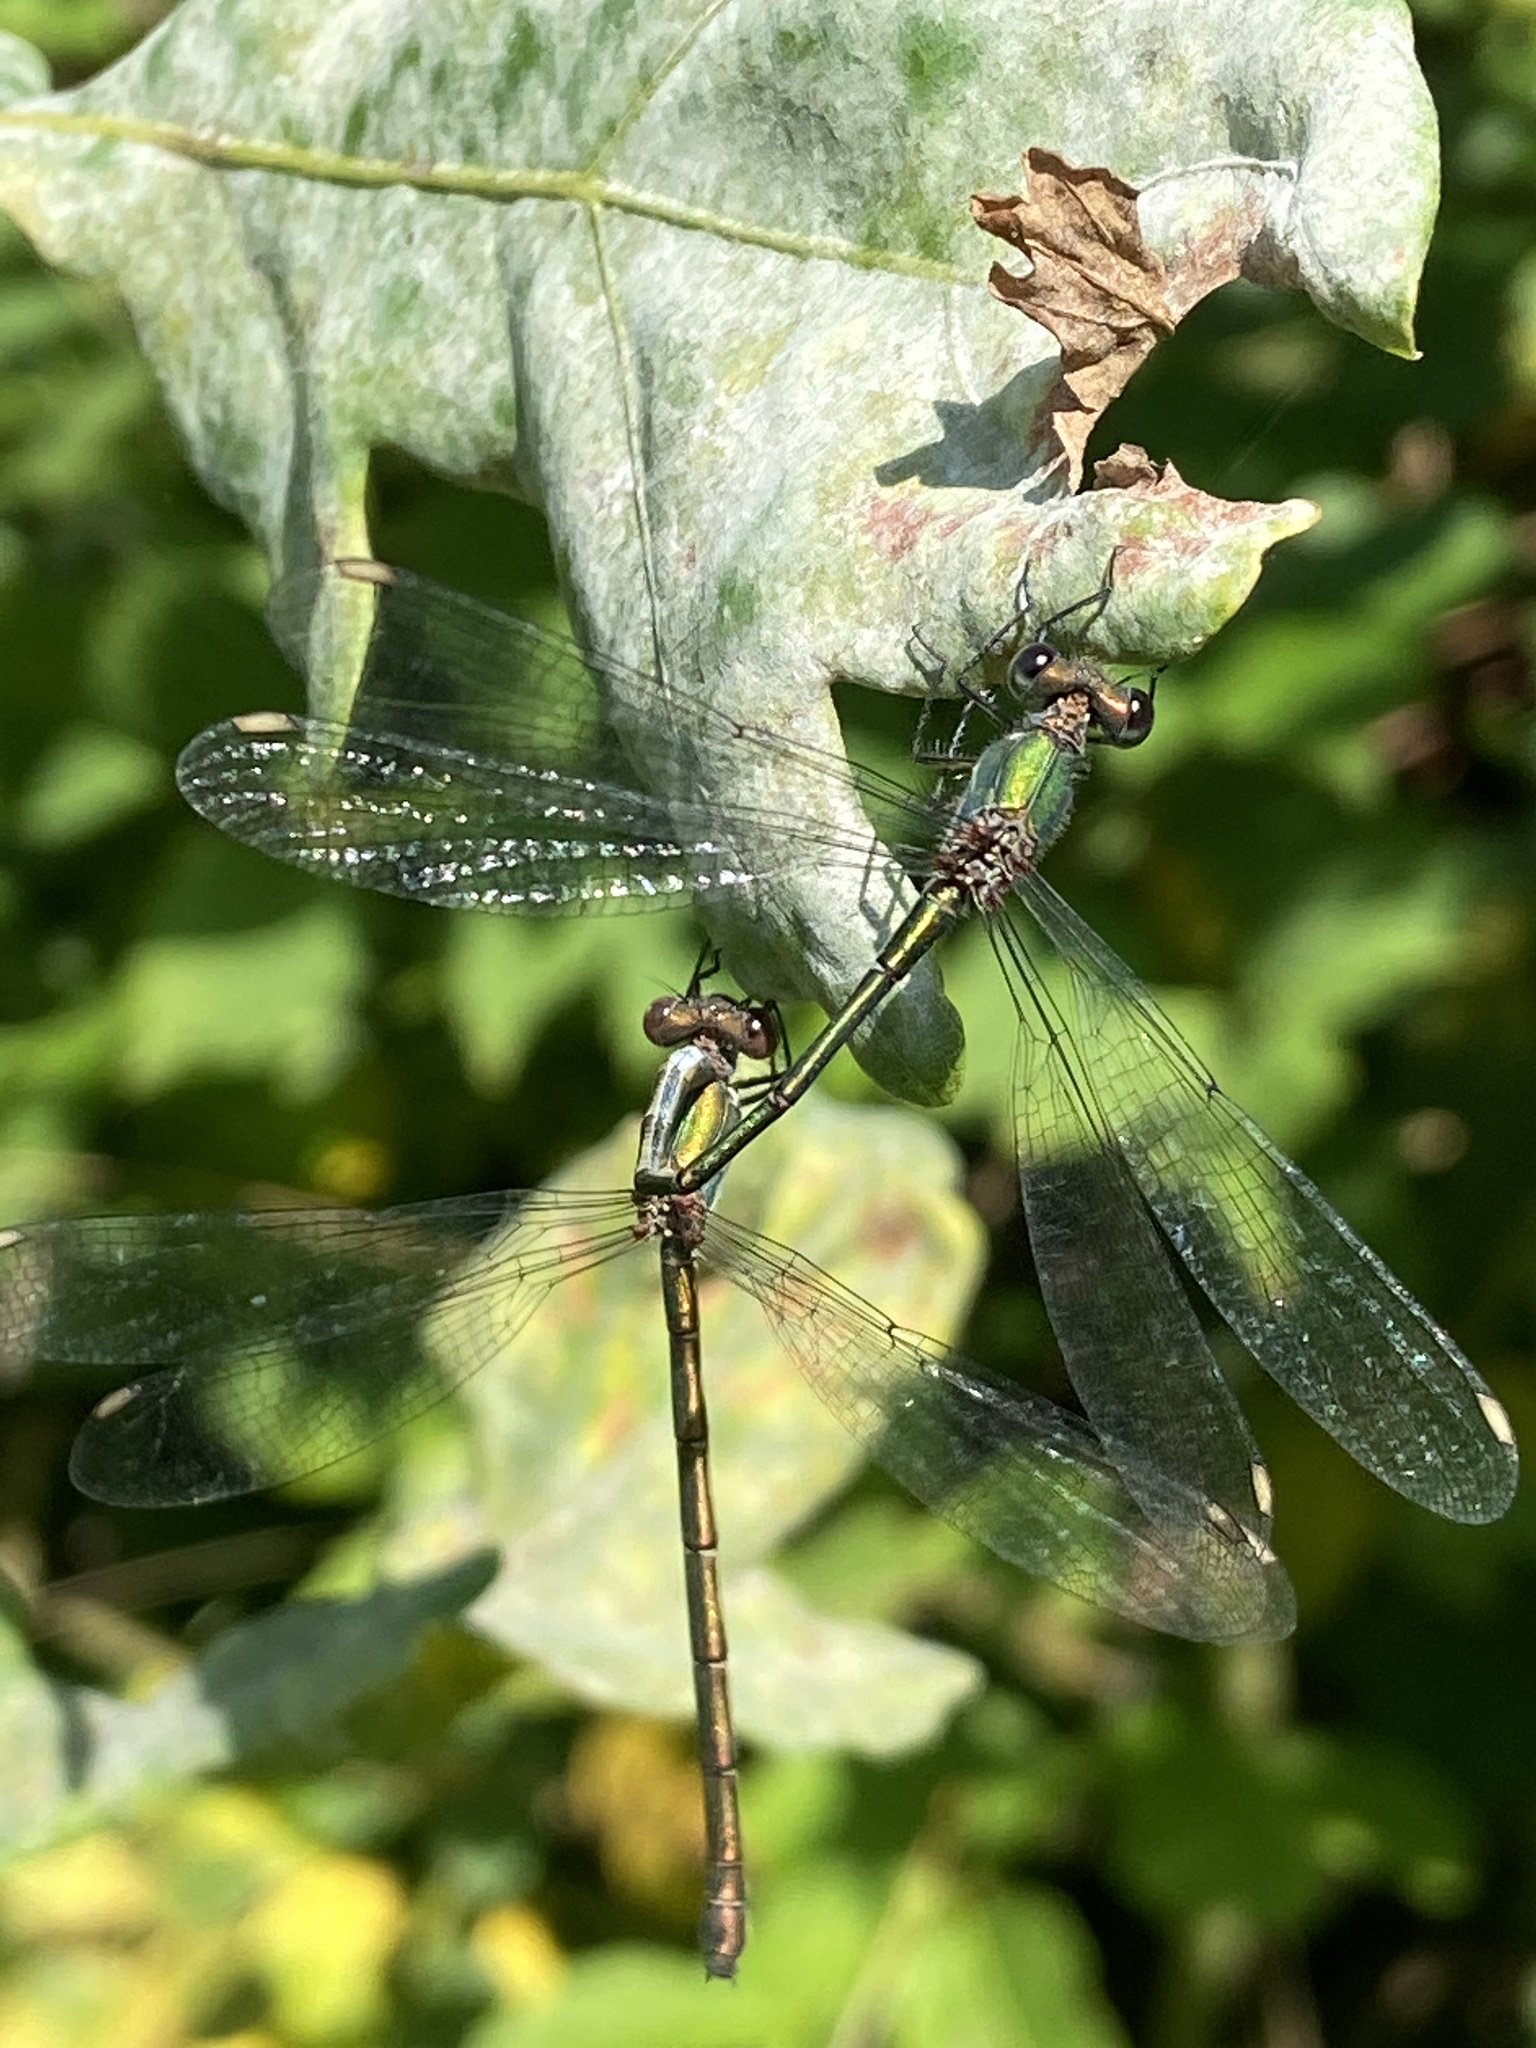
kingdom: Animalia
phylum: Arthropoda
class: Insecta
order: Odonata
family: Lestidae
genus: Chalcolestes
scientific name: Chalcolestes viridis
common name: Green emerald damselfly
